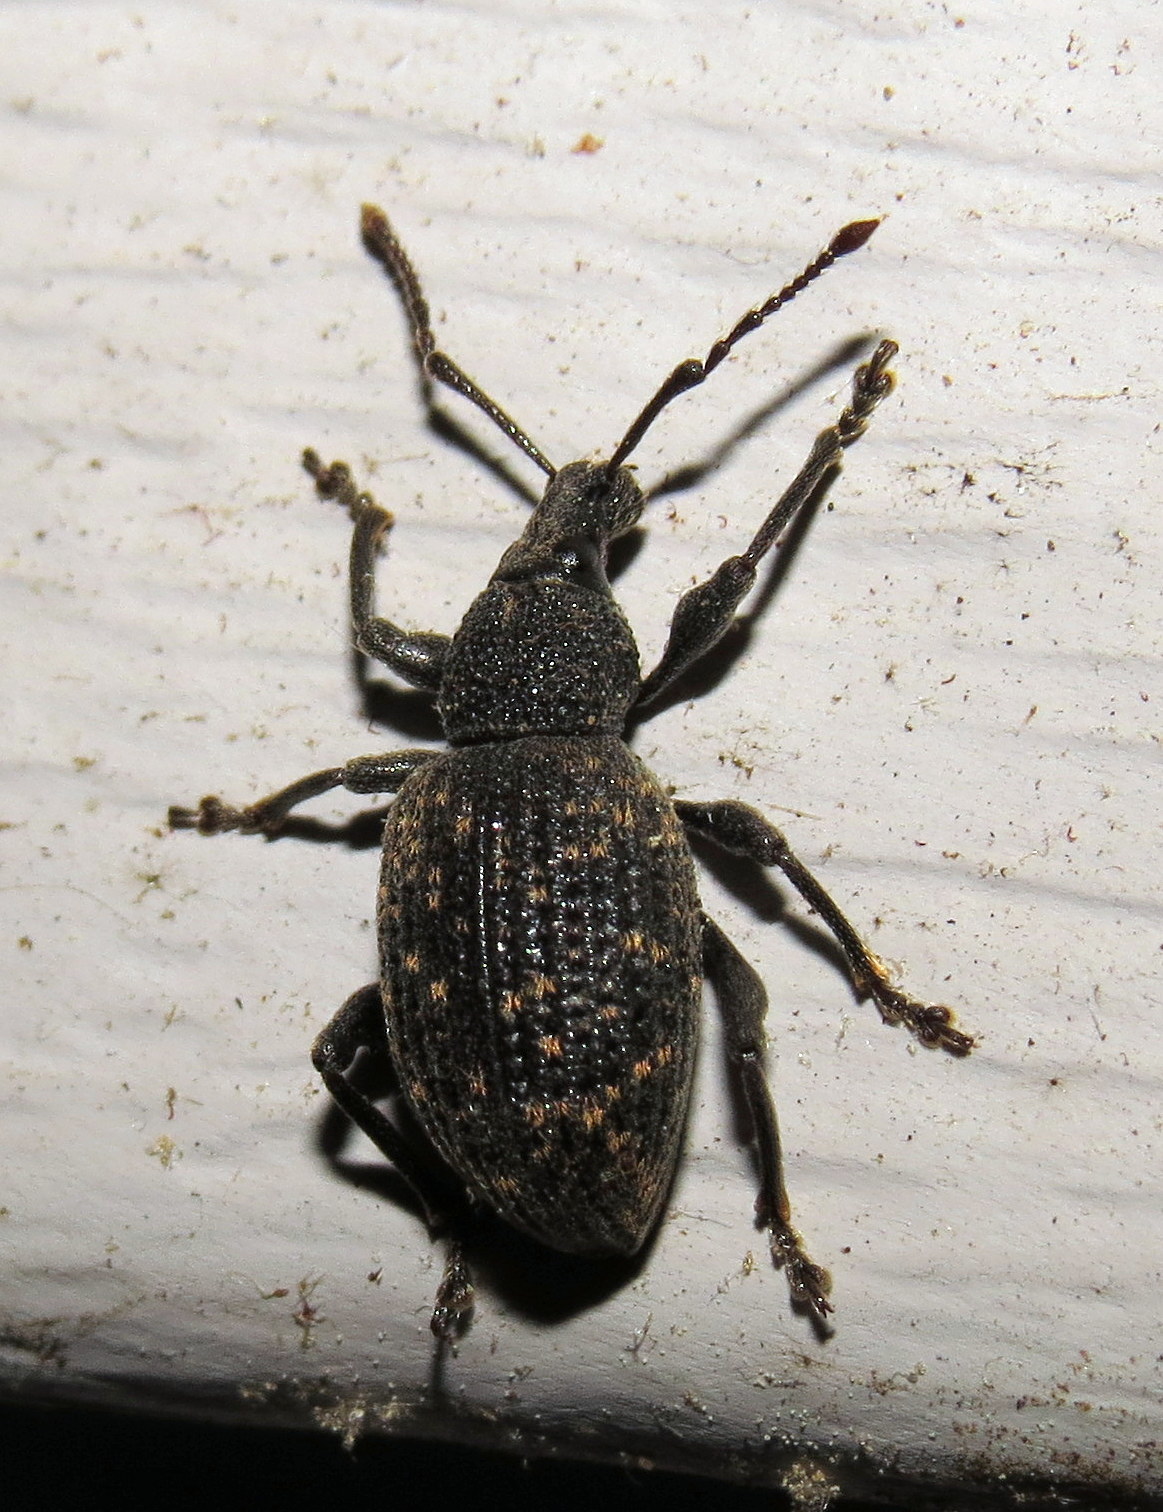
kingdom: Animalia
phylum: Arthropoda
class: Insecta
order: Coleoptera
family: Curculionidae
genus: Otiorhynchus
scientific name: Otiorhynchus sulcatus
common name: Black vine weevil
